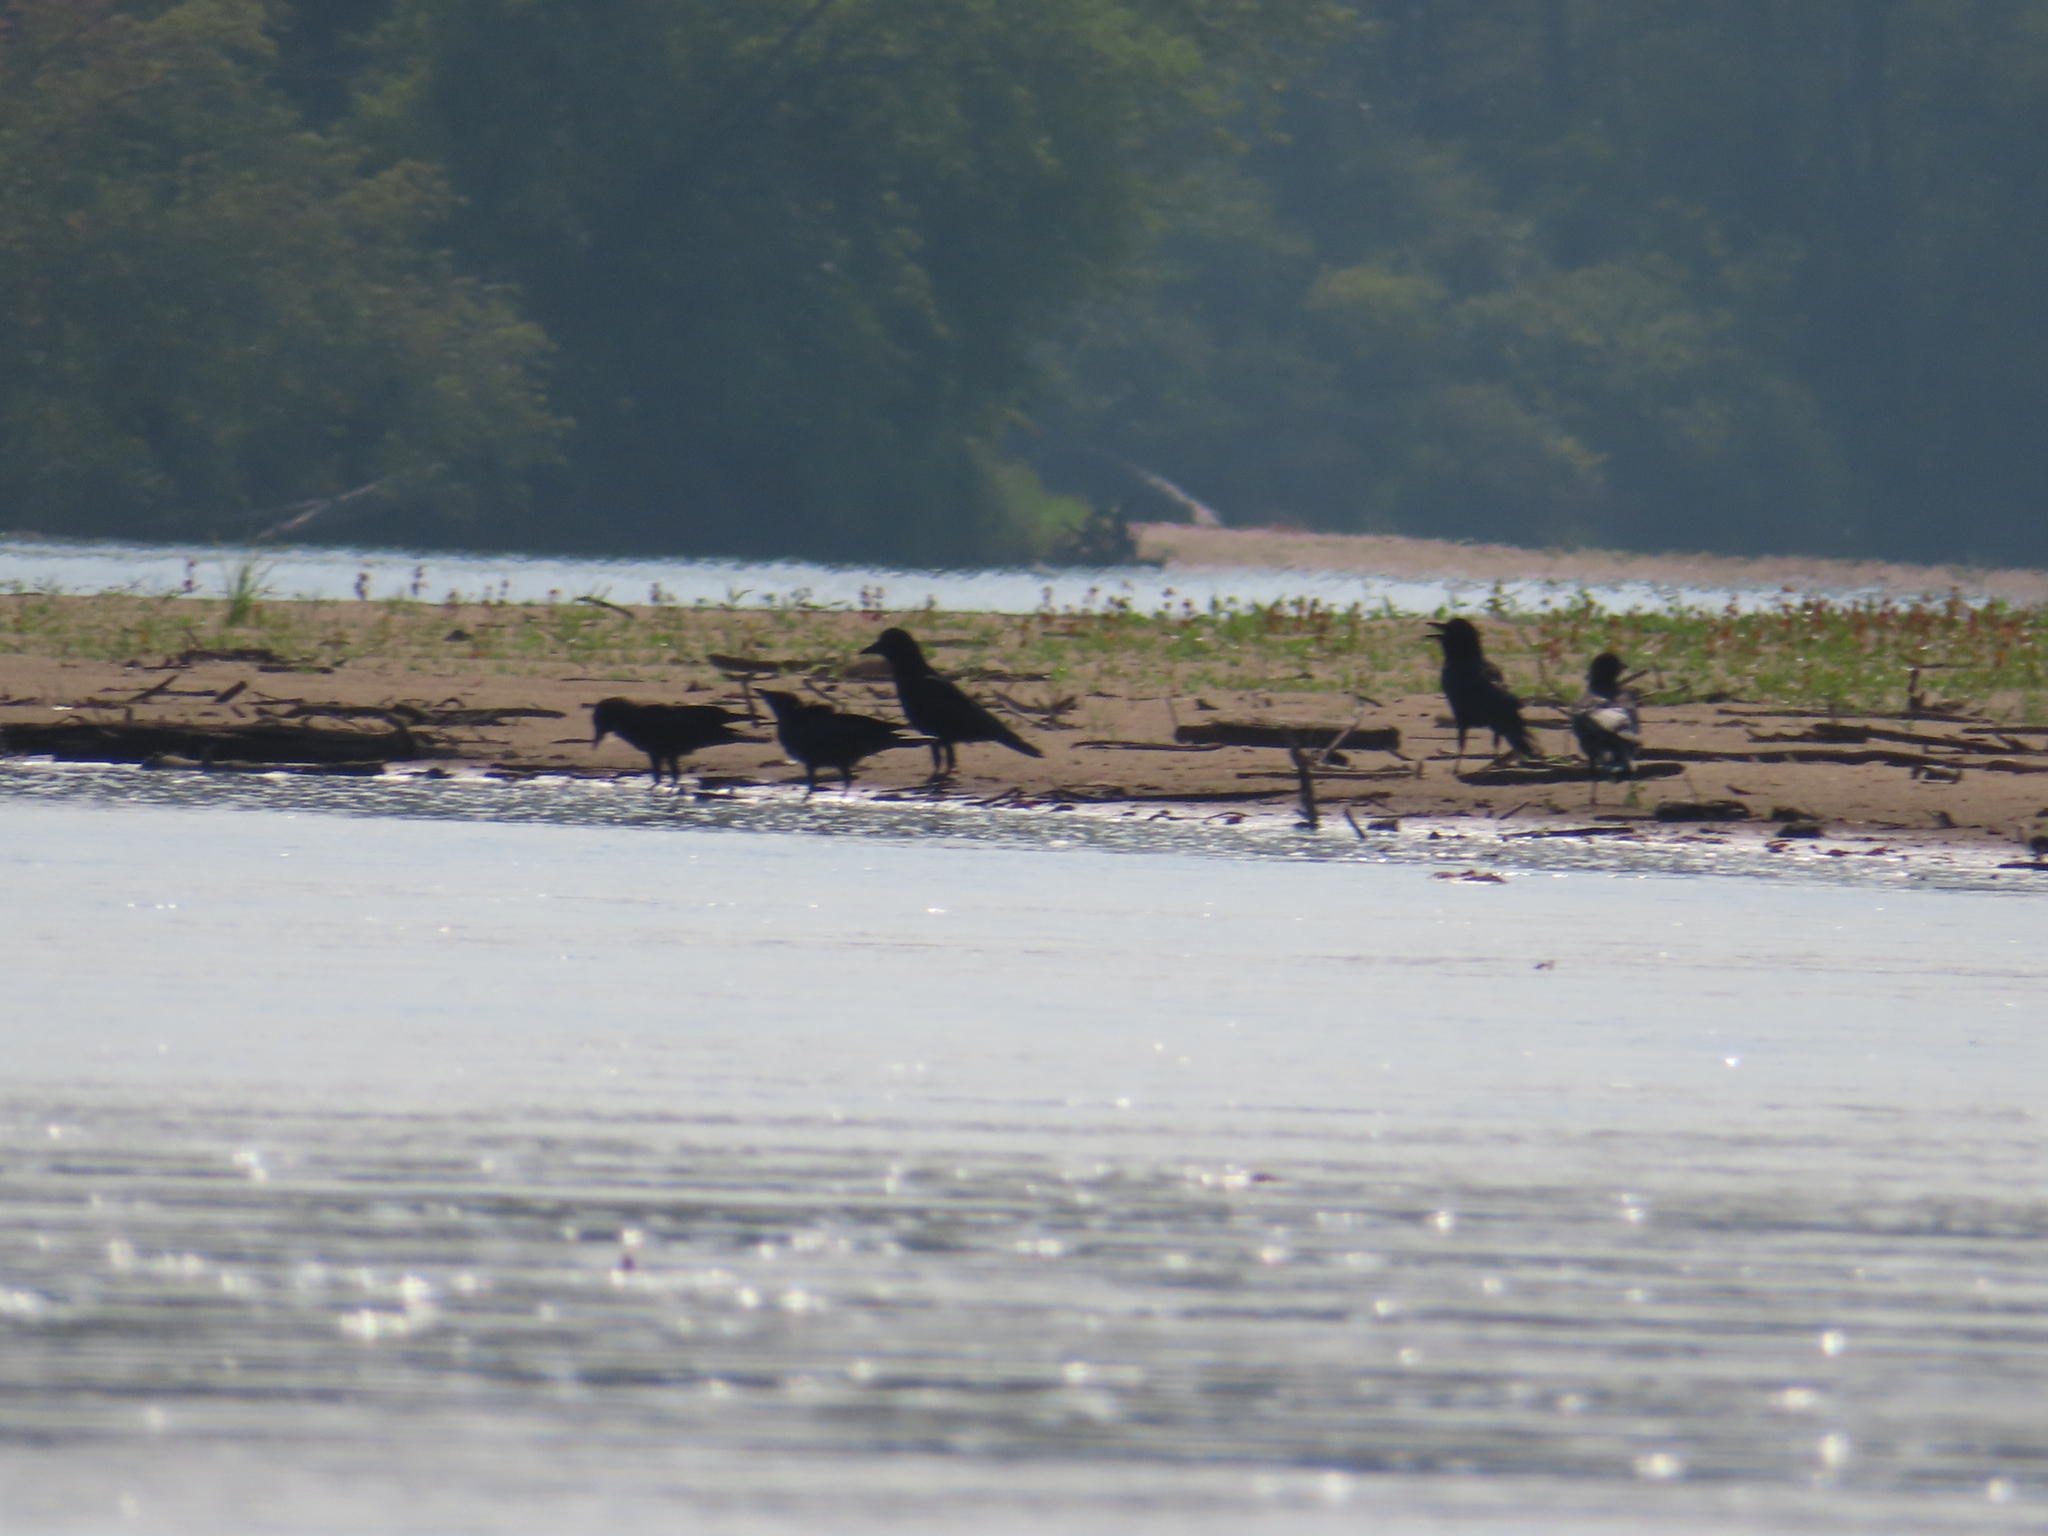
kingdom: Animalia
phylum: Chordata
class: Aves
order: Passeriformes
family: Corvidae
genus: Corvus
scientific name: Corvus brachyrhynchos
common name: American crow
